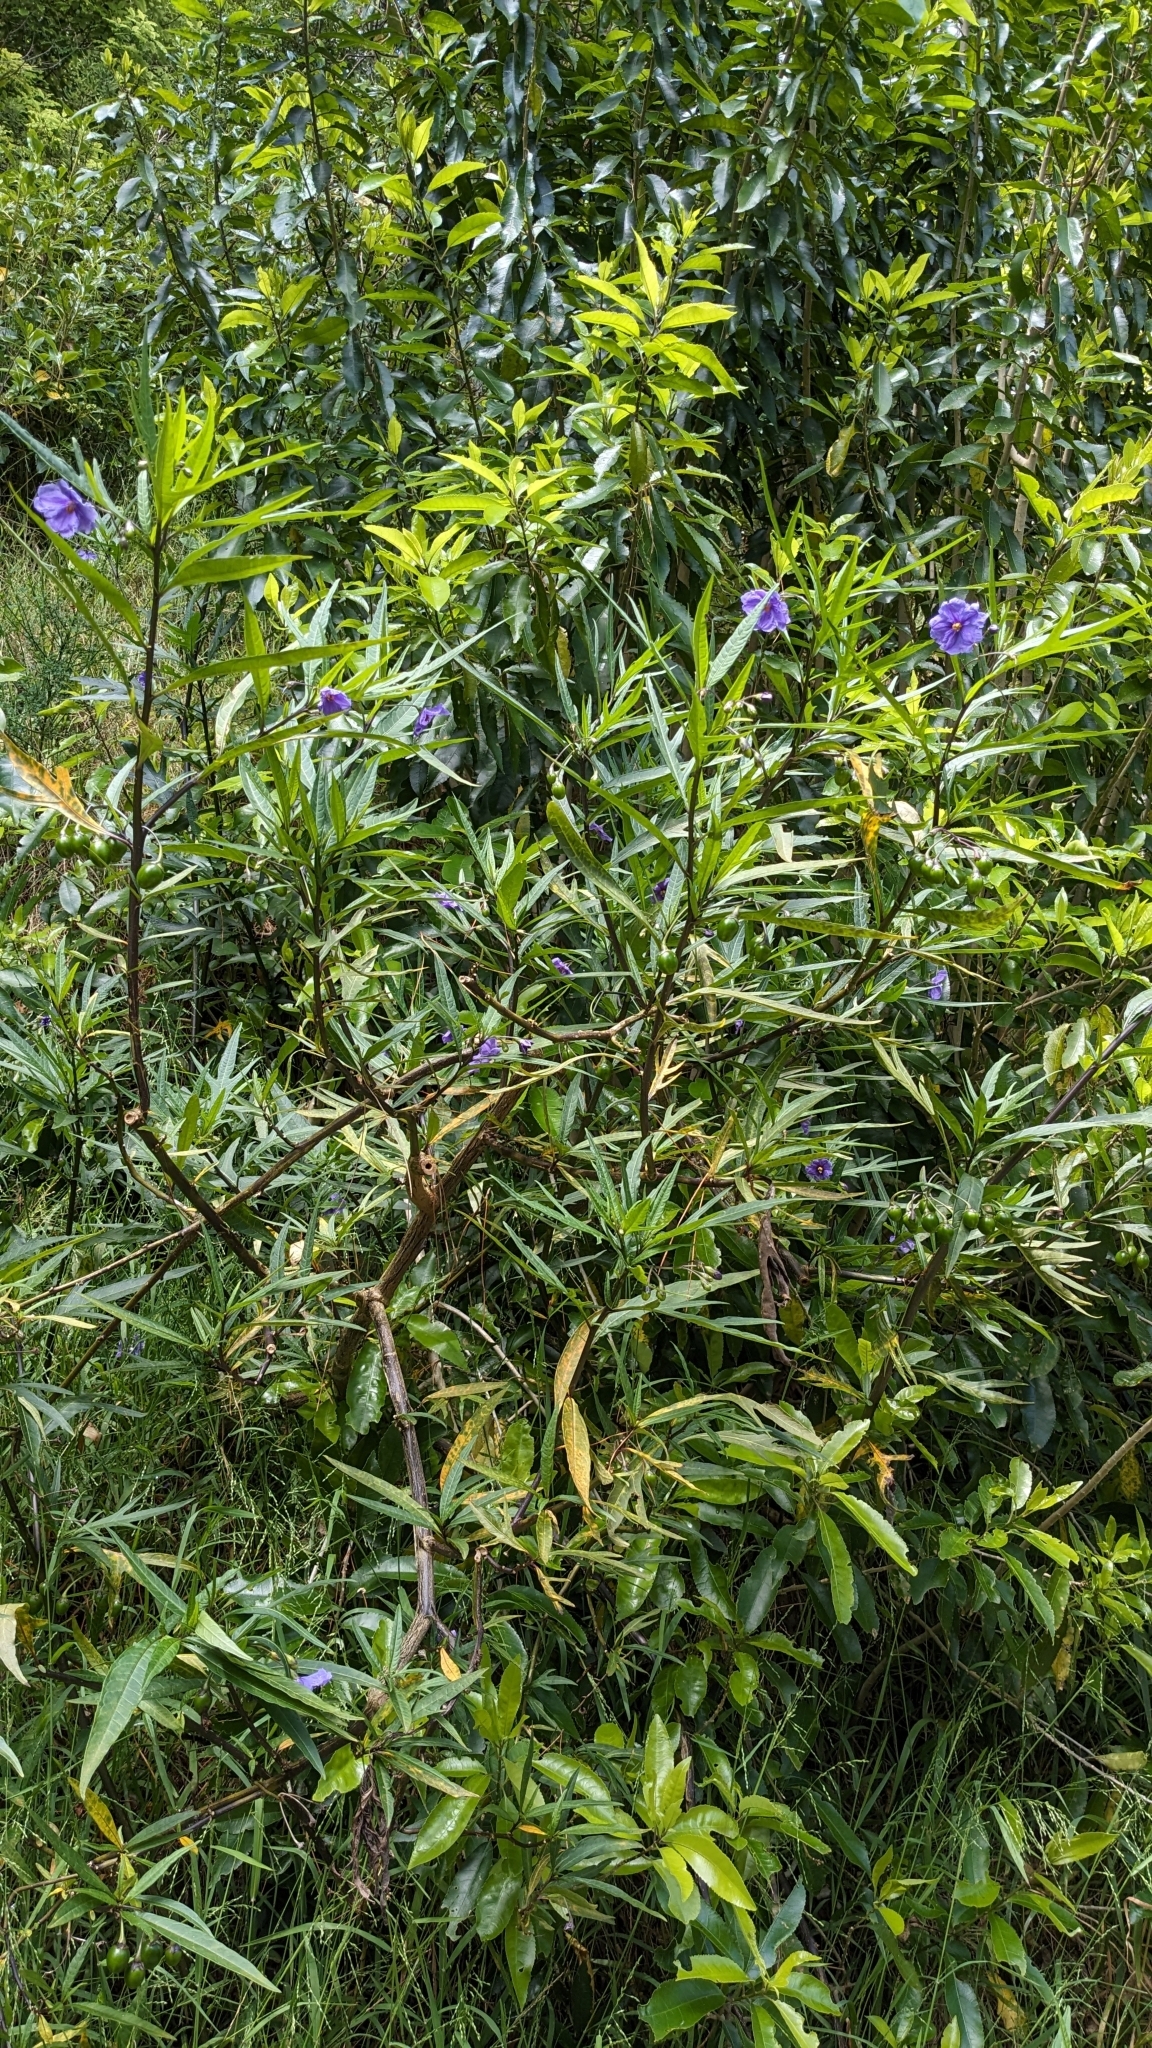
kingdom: Plantae
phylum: Tracheophyta
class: Magnoliopsida
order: Solanales
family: Solanaceae
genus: Solanum
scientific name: Solanum laciniatum
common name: Kangaroo-apple
